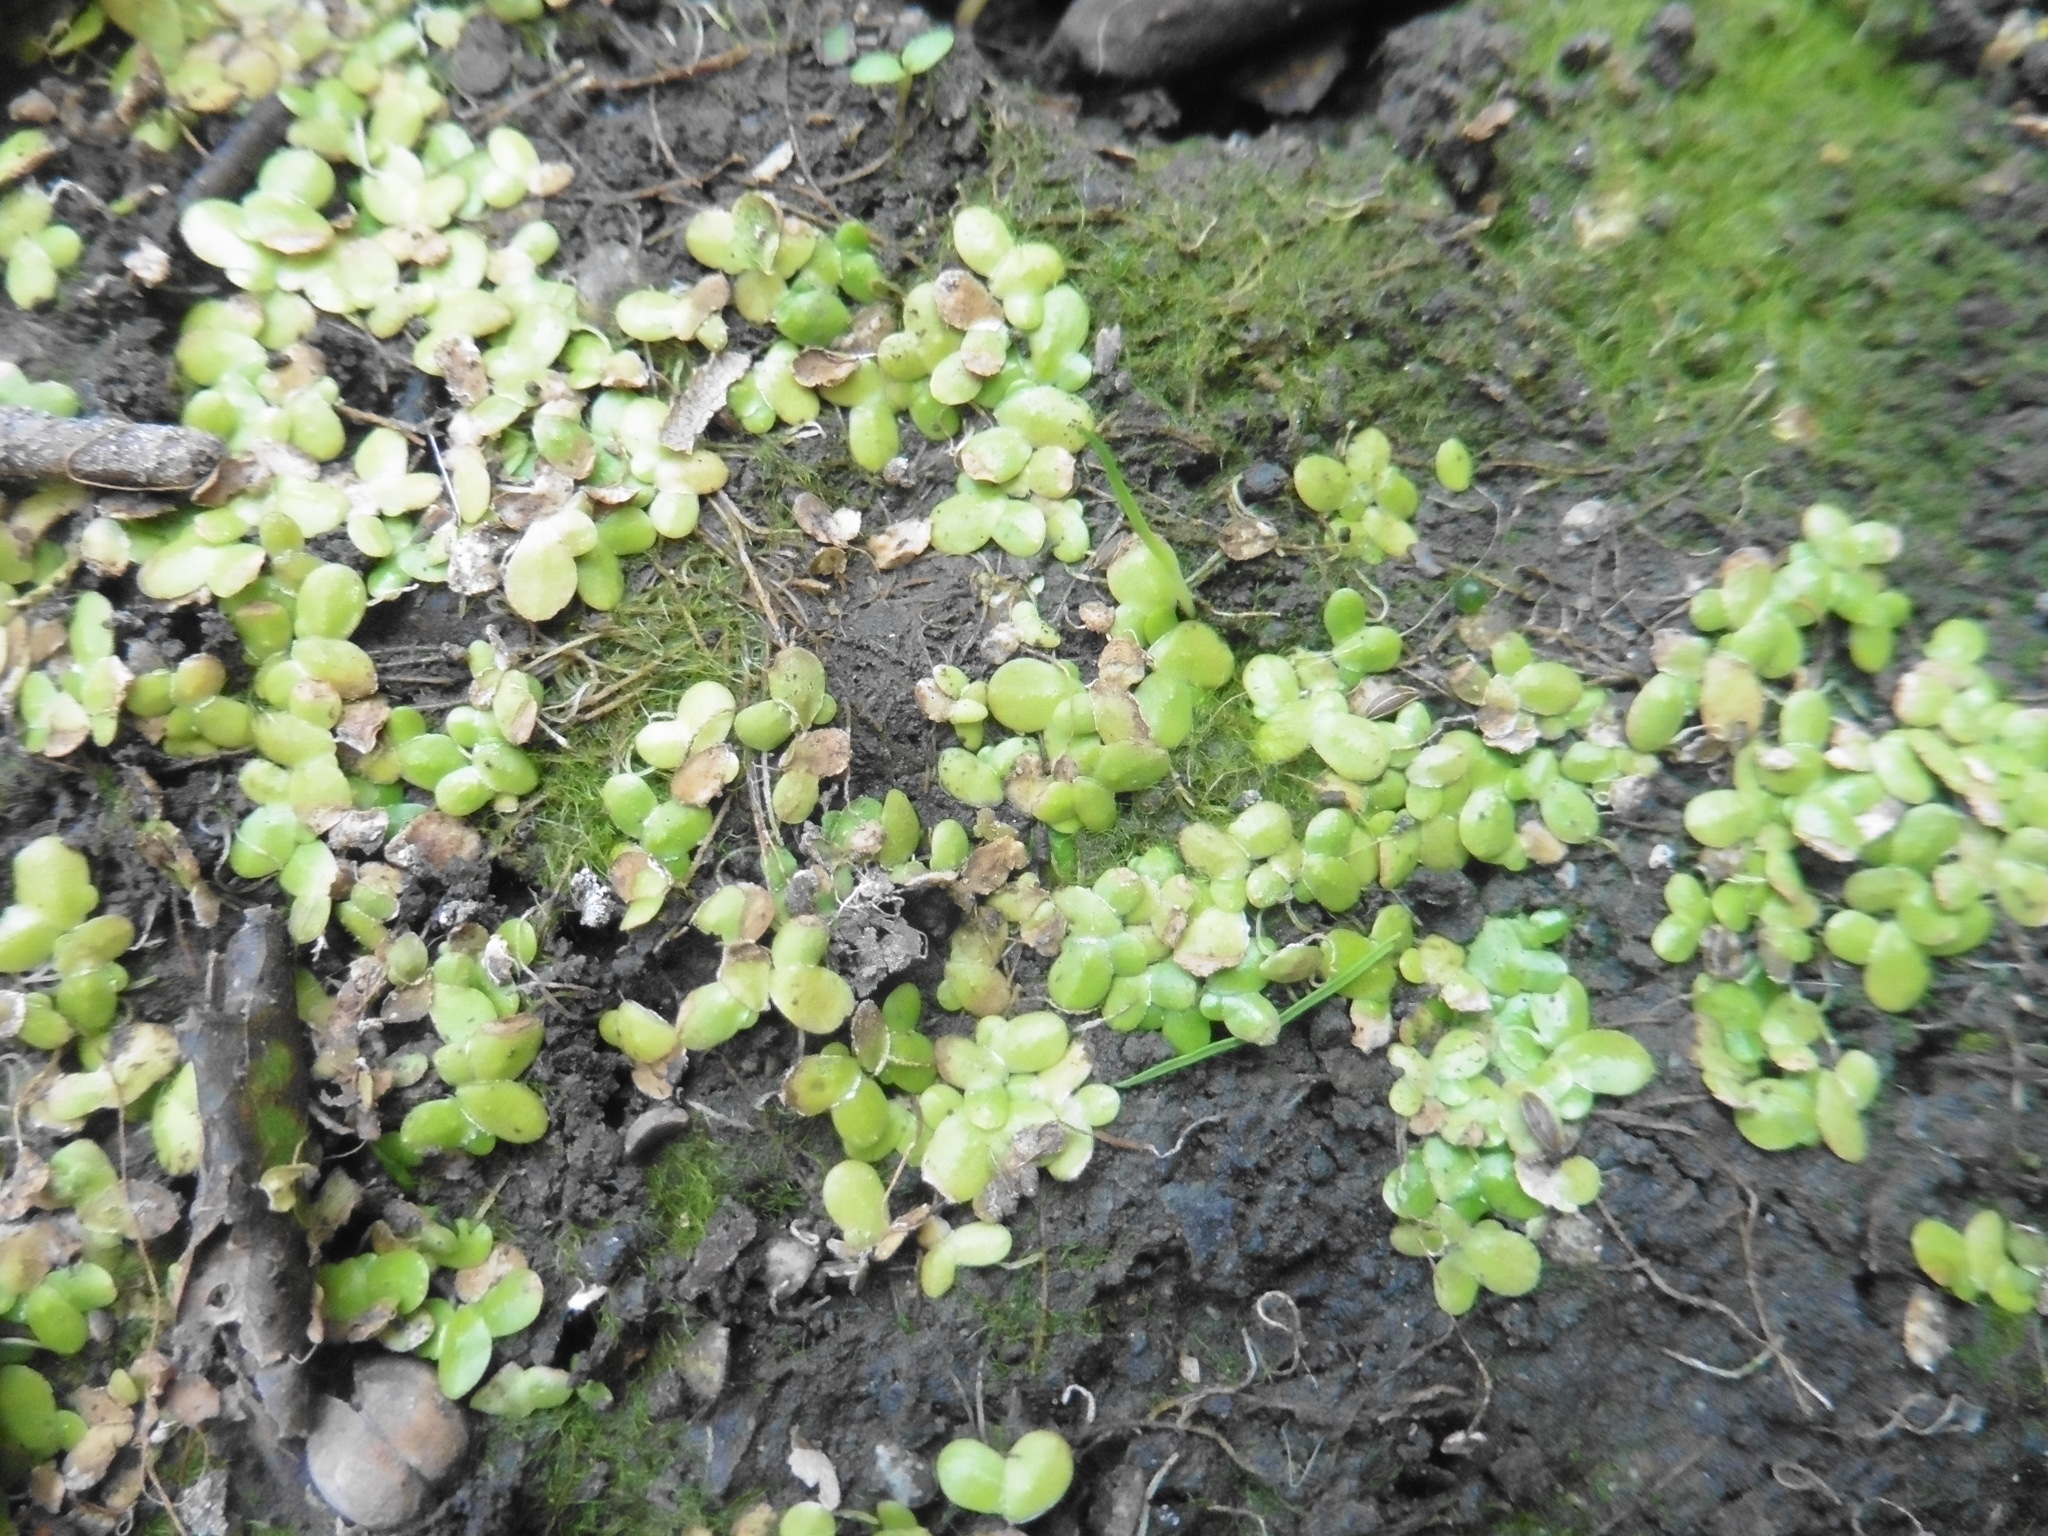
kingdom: Plantae
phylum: Tracheophyta
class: Liliopsida
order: Alismatales
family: Araceae
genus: Lemna
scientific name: Lemna minor
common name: Common duckweed
